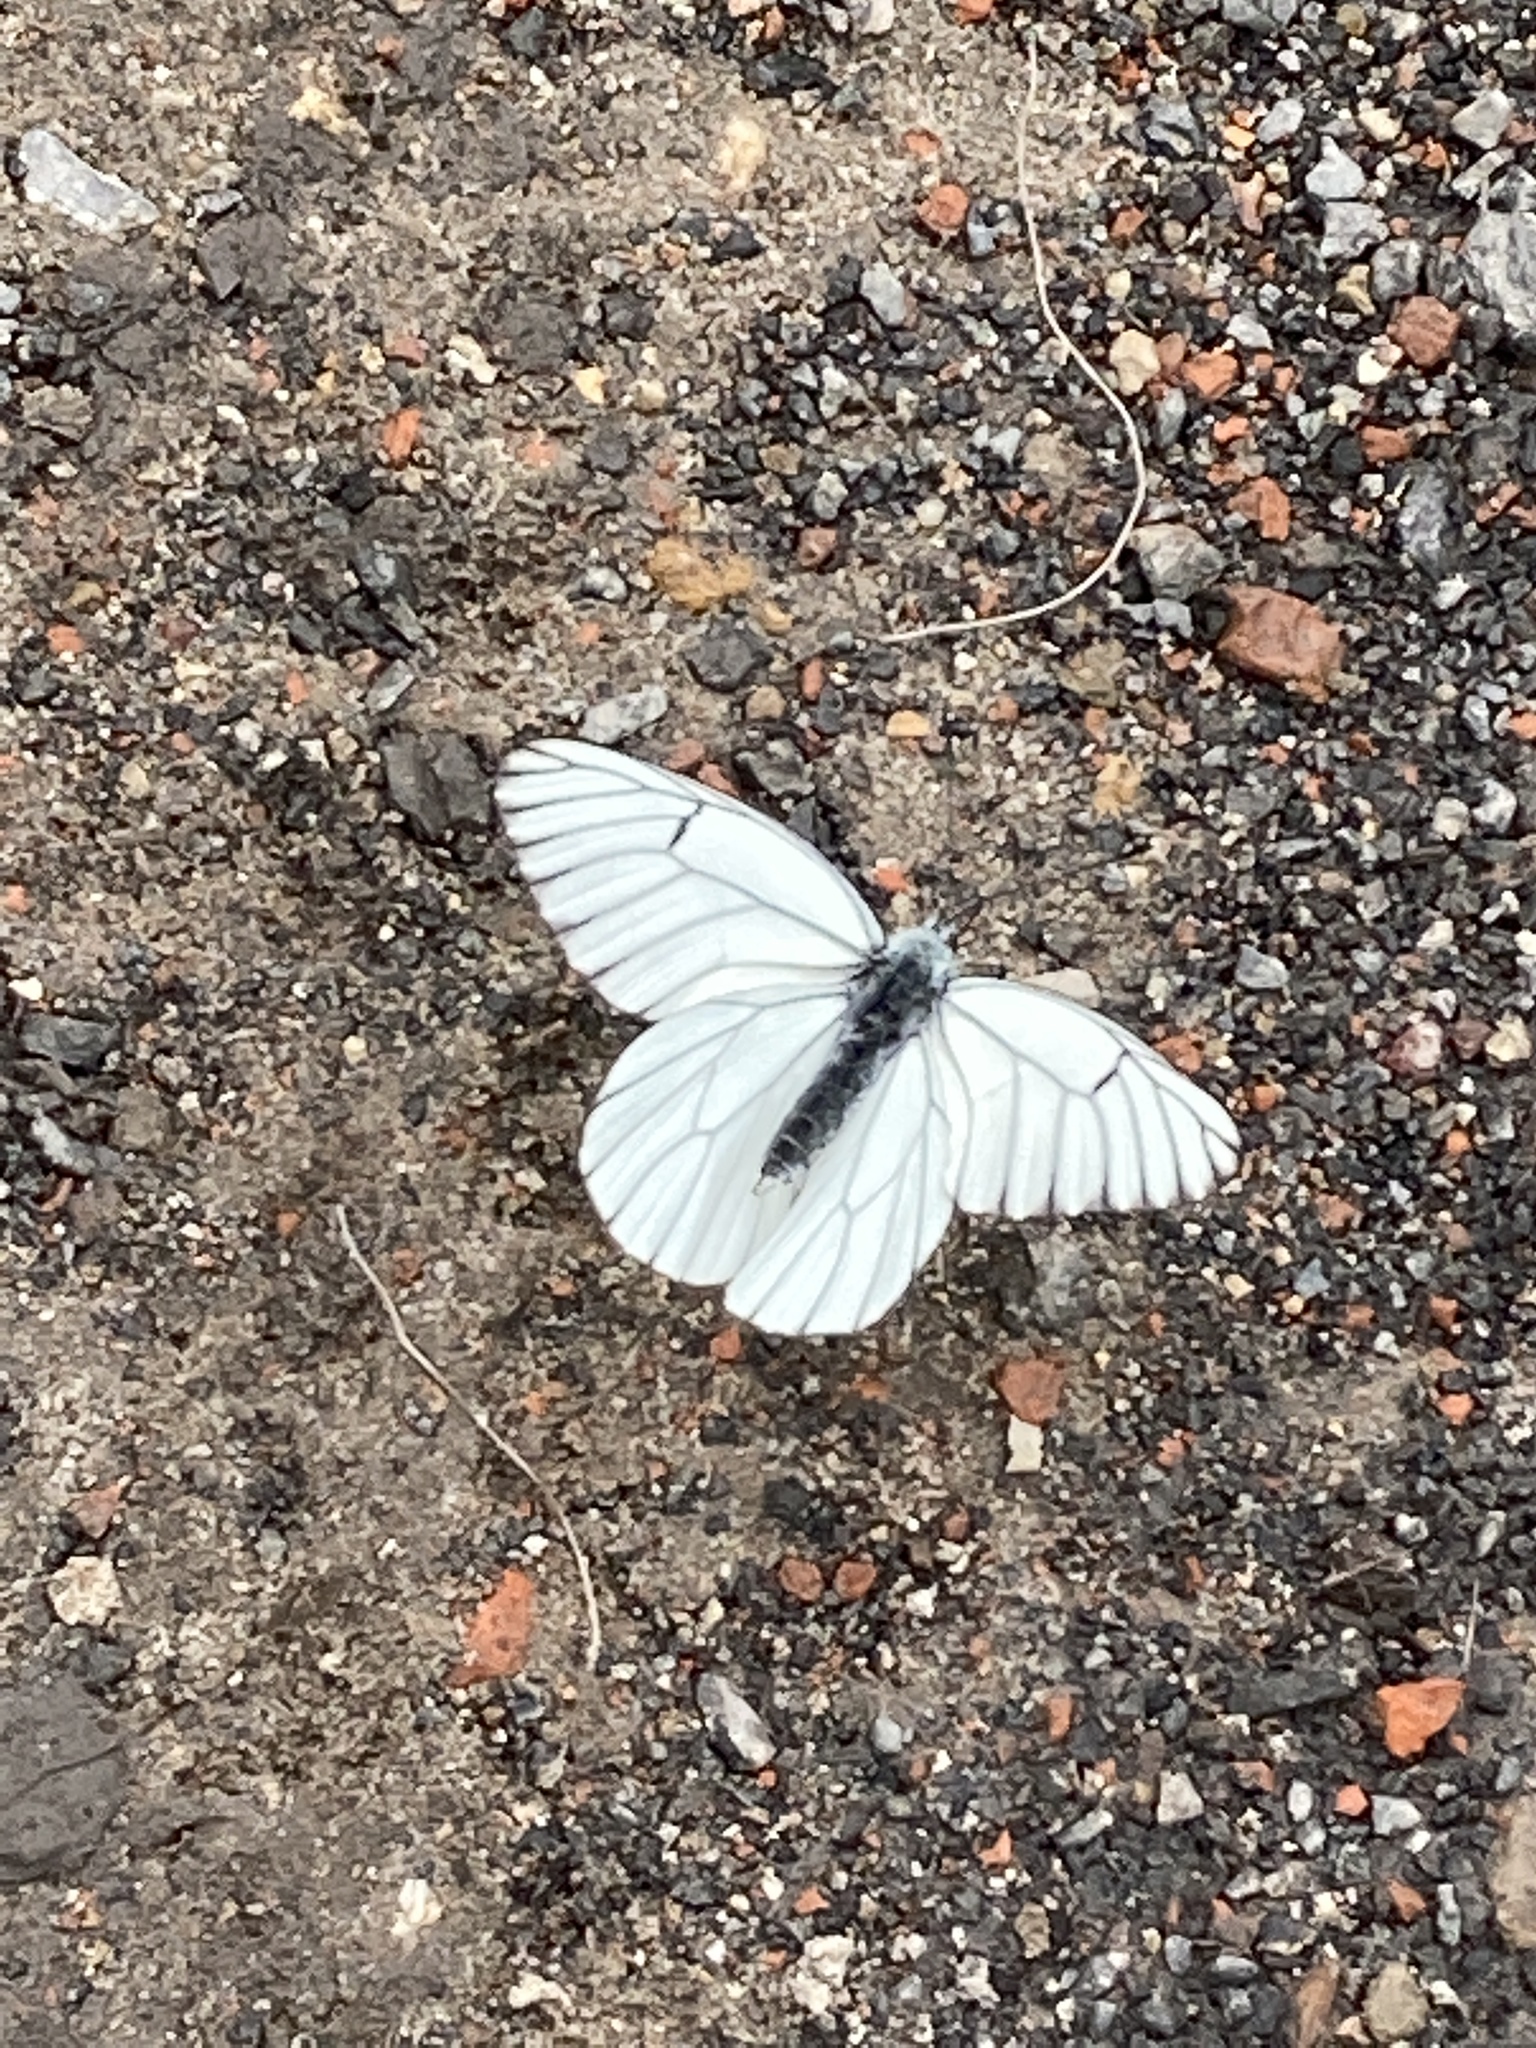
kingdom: Animalia
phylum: Arthropoda
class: Insecta
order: Lepidoptera
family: Pieridae
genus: Aporia
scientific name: Aporia crataegi
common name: Black-veined white
